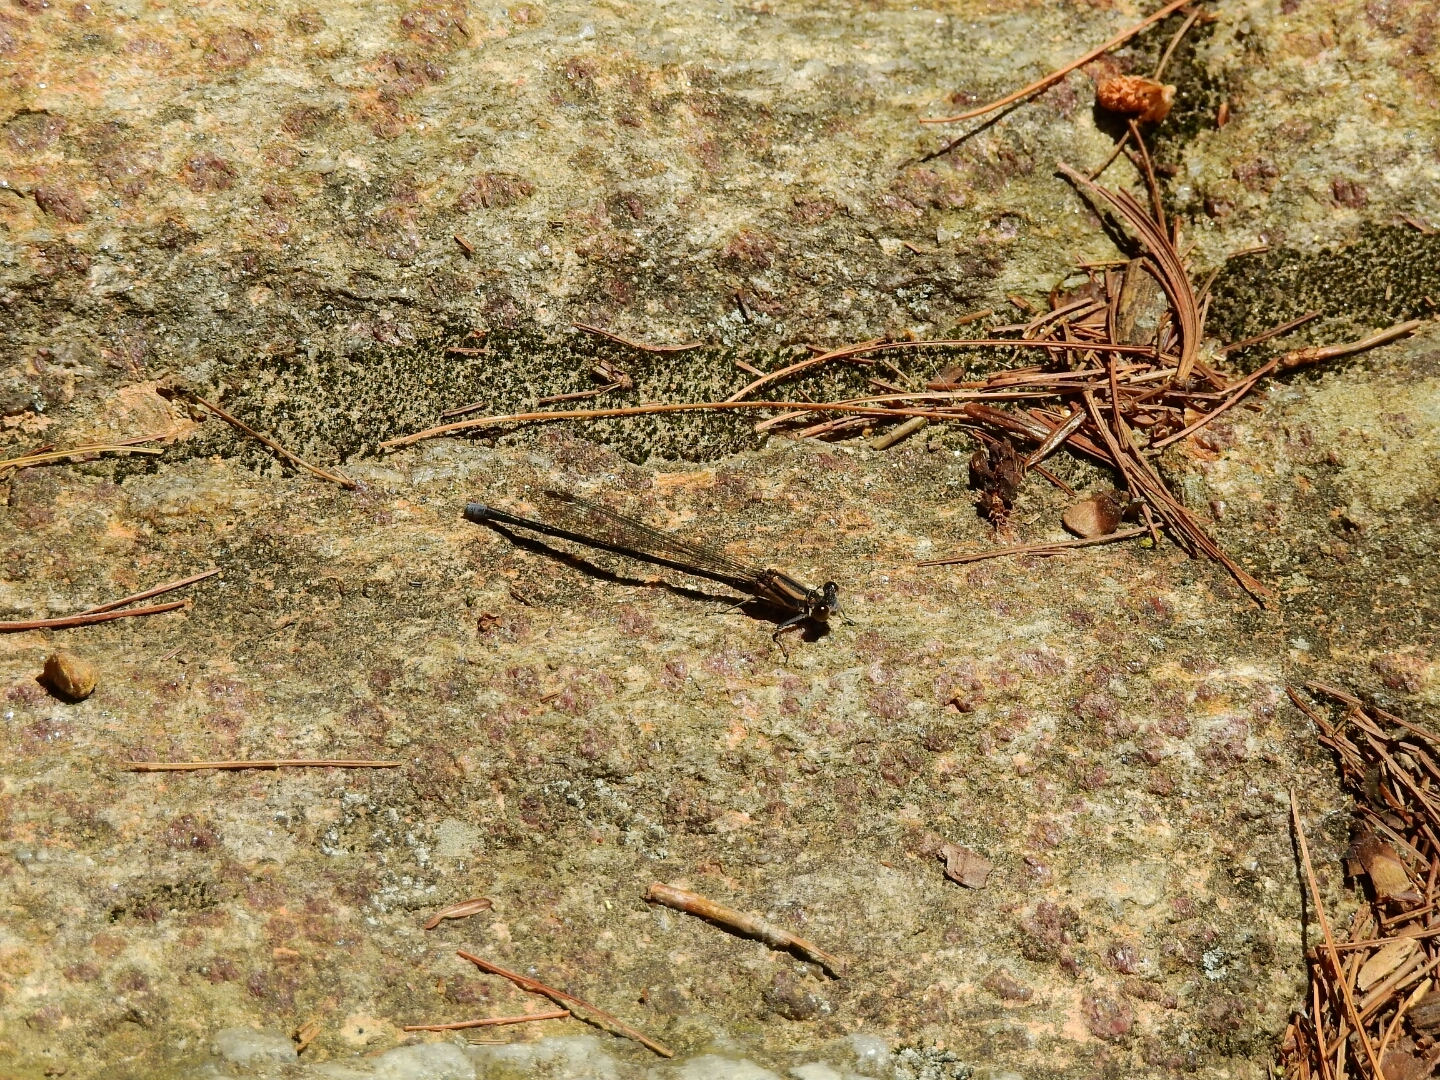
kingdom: Animalia
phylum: Arthropoda
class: Insecta
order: Odonata
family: Coenagrionidae
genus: Argia
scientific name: Argia moesta
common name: Powdered dancer
